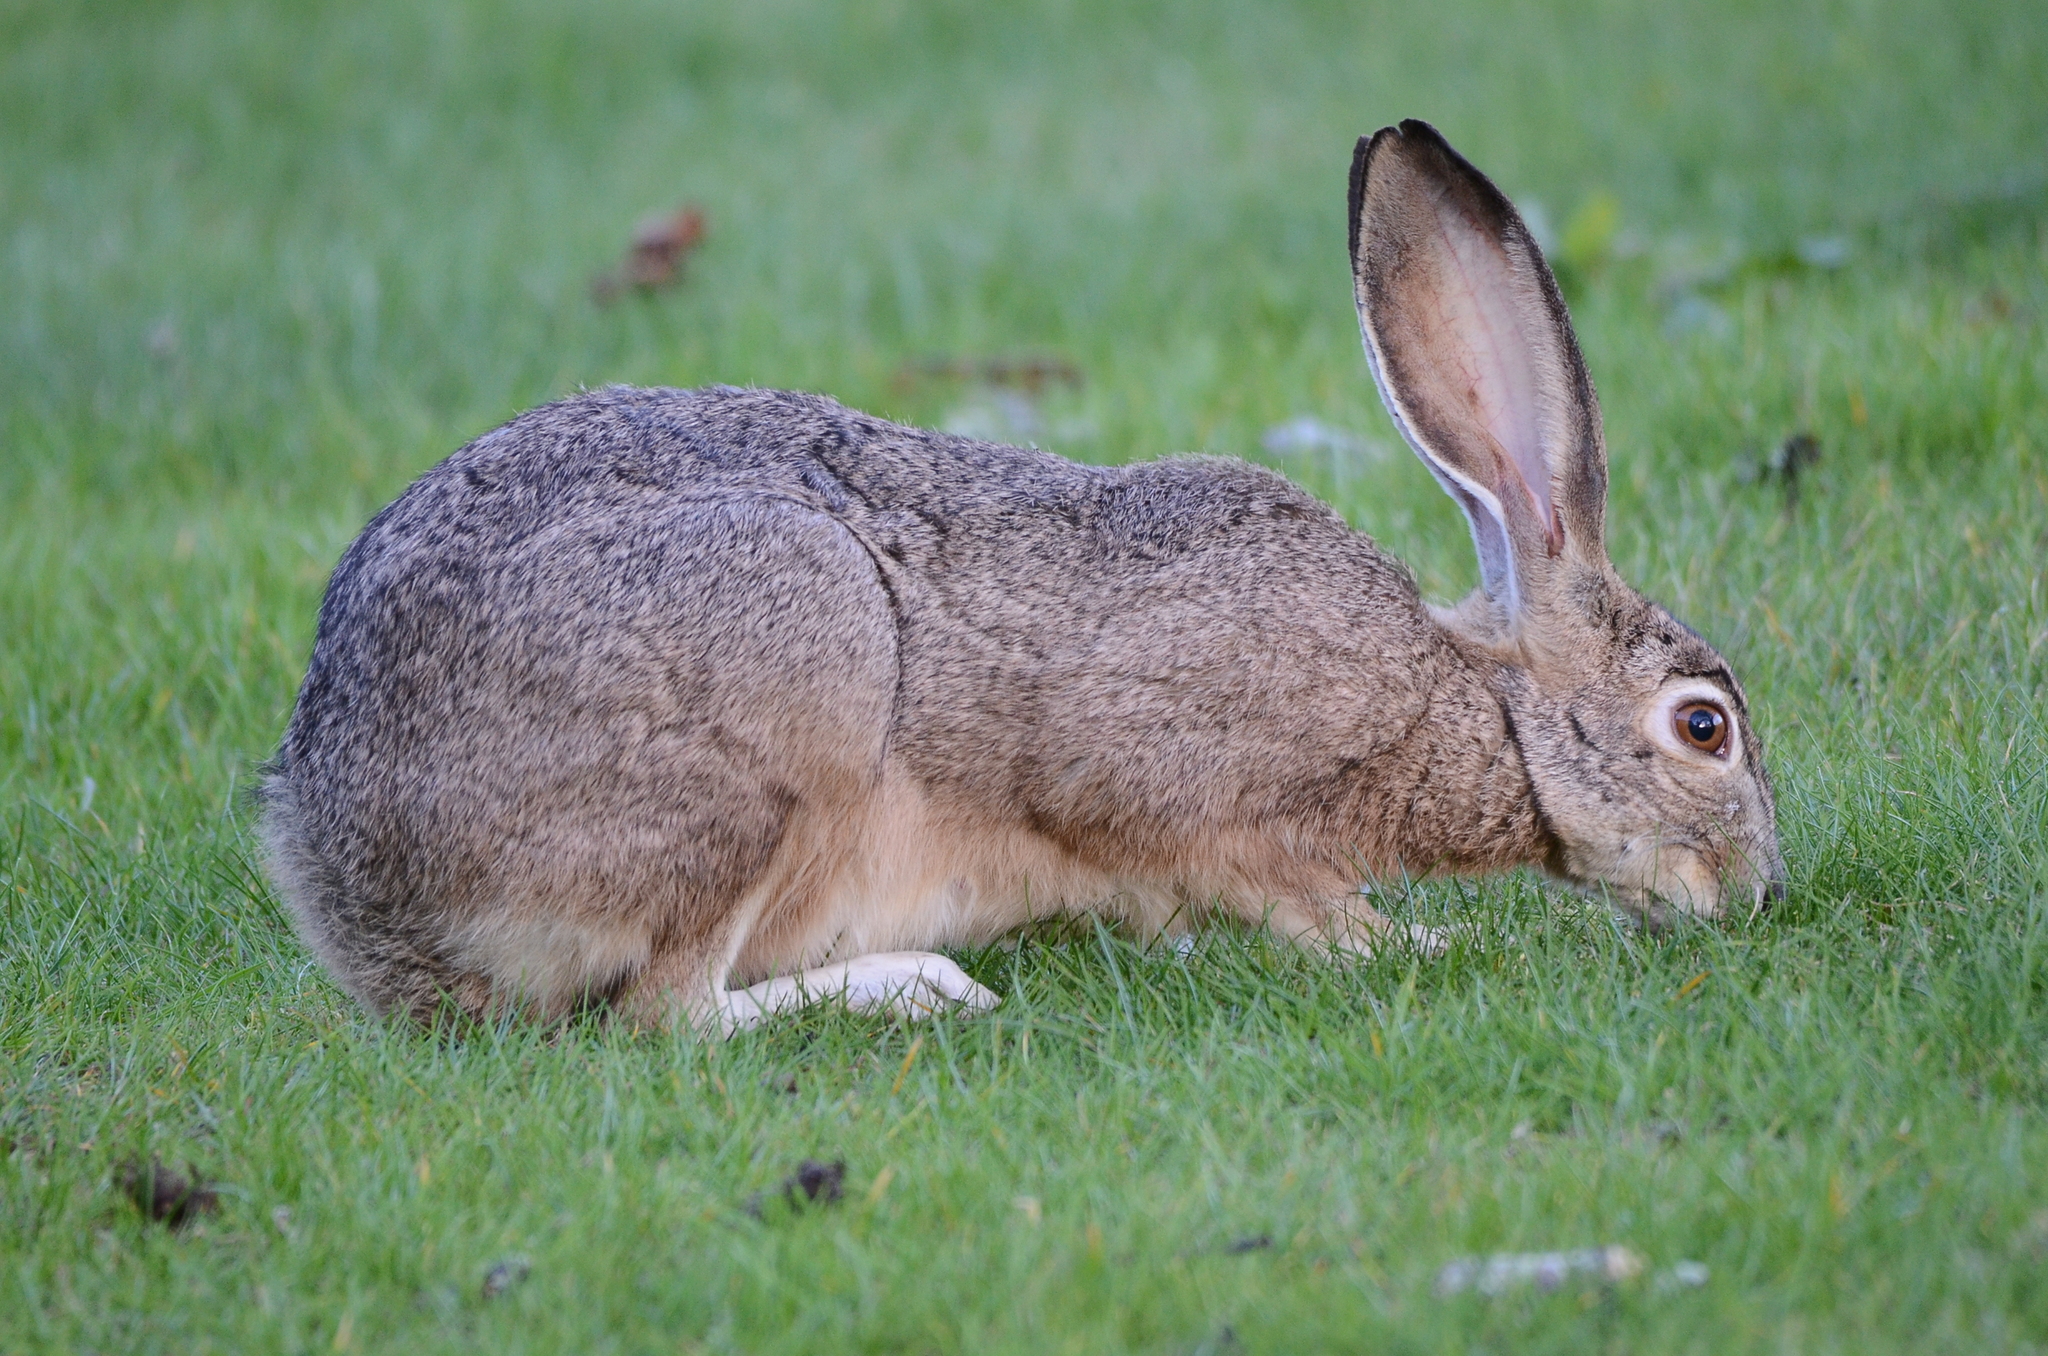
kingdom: Animalia
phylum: Chordata
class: Mammalia
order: Lagomorpha
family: Leporidae
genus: Lepus
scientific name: Lepus californicus
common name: Black-tailed jackrabbit
